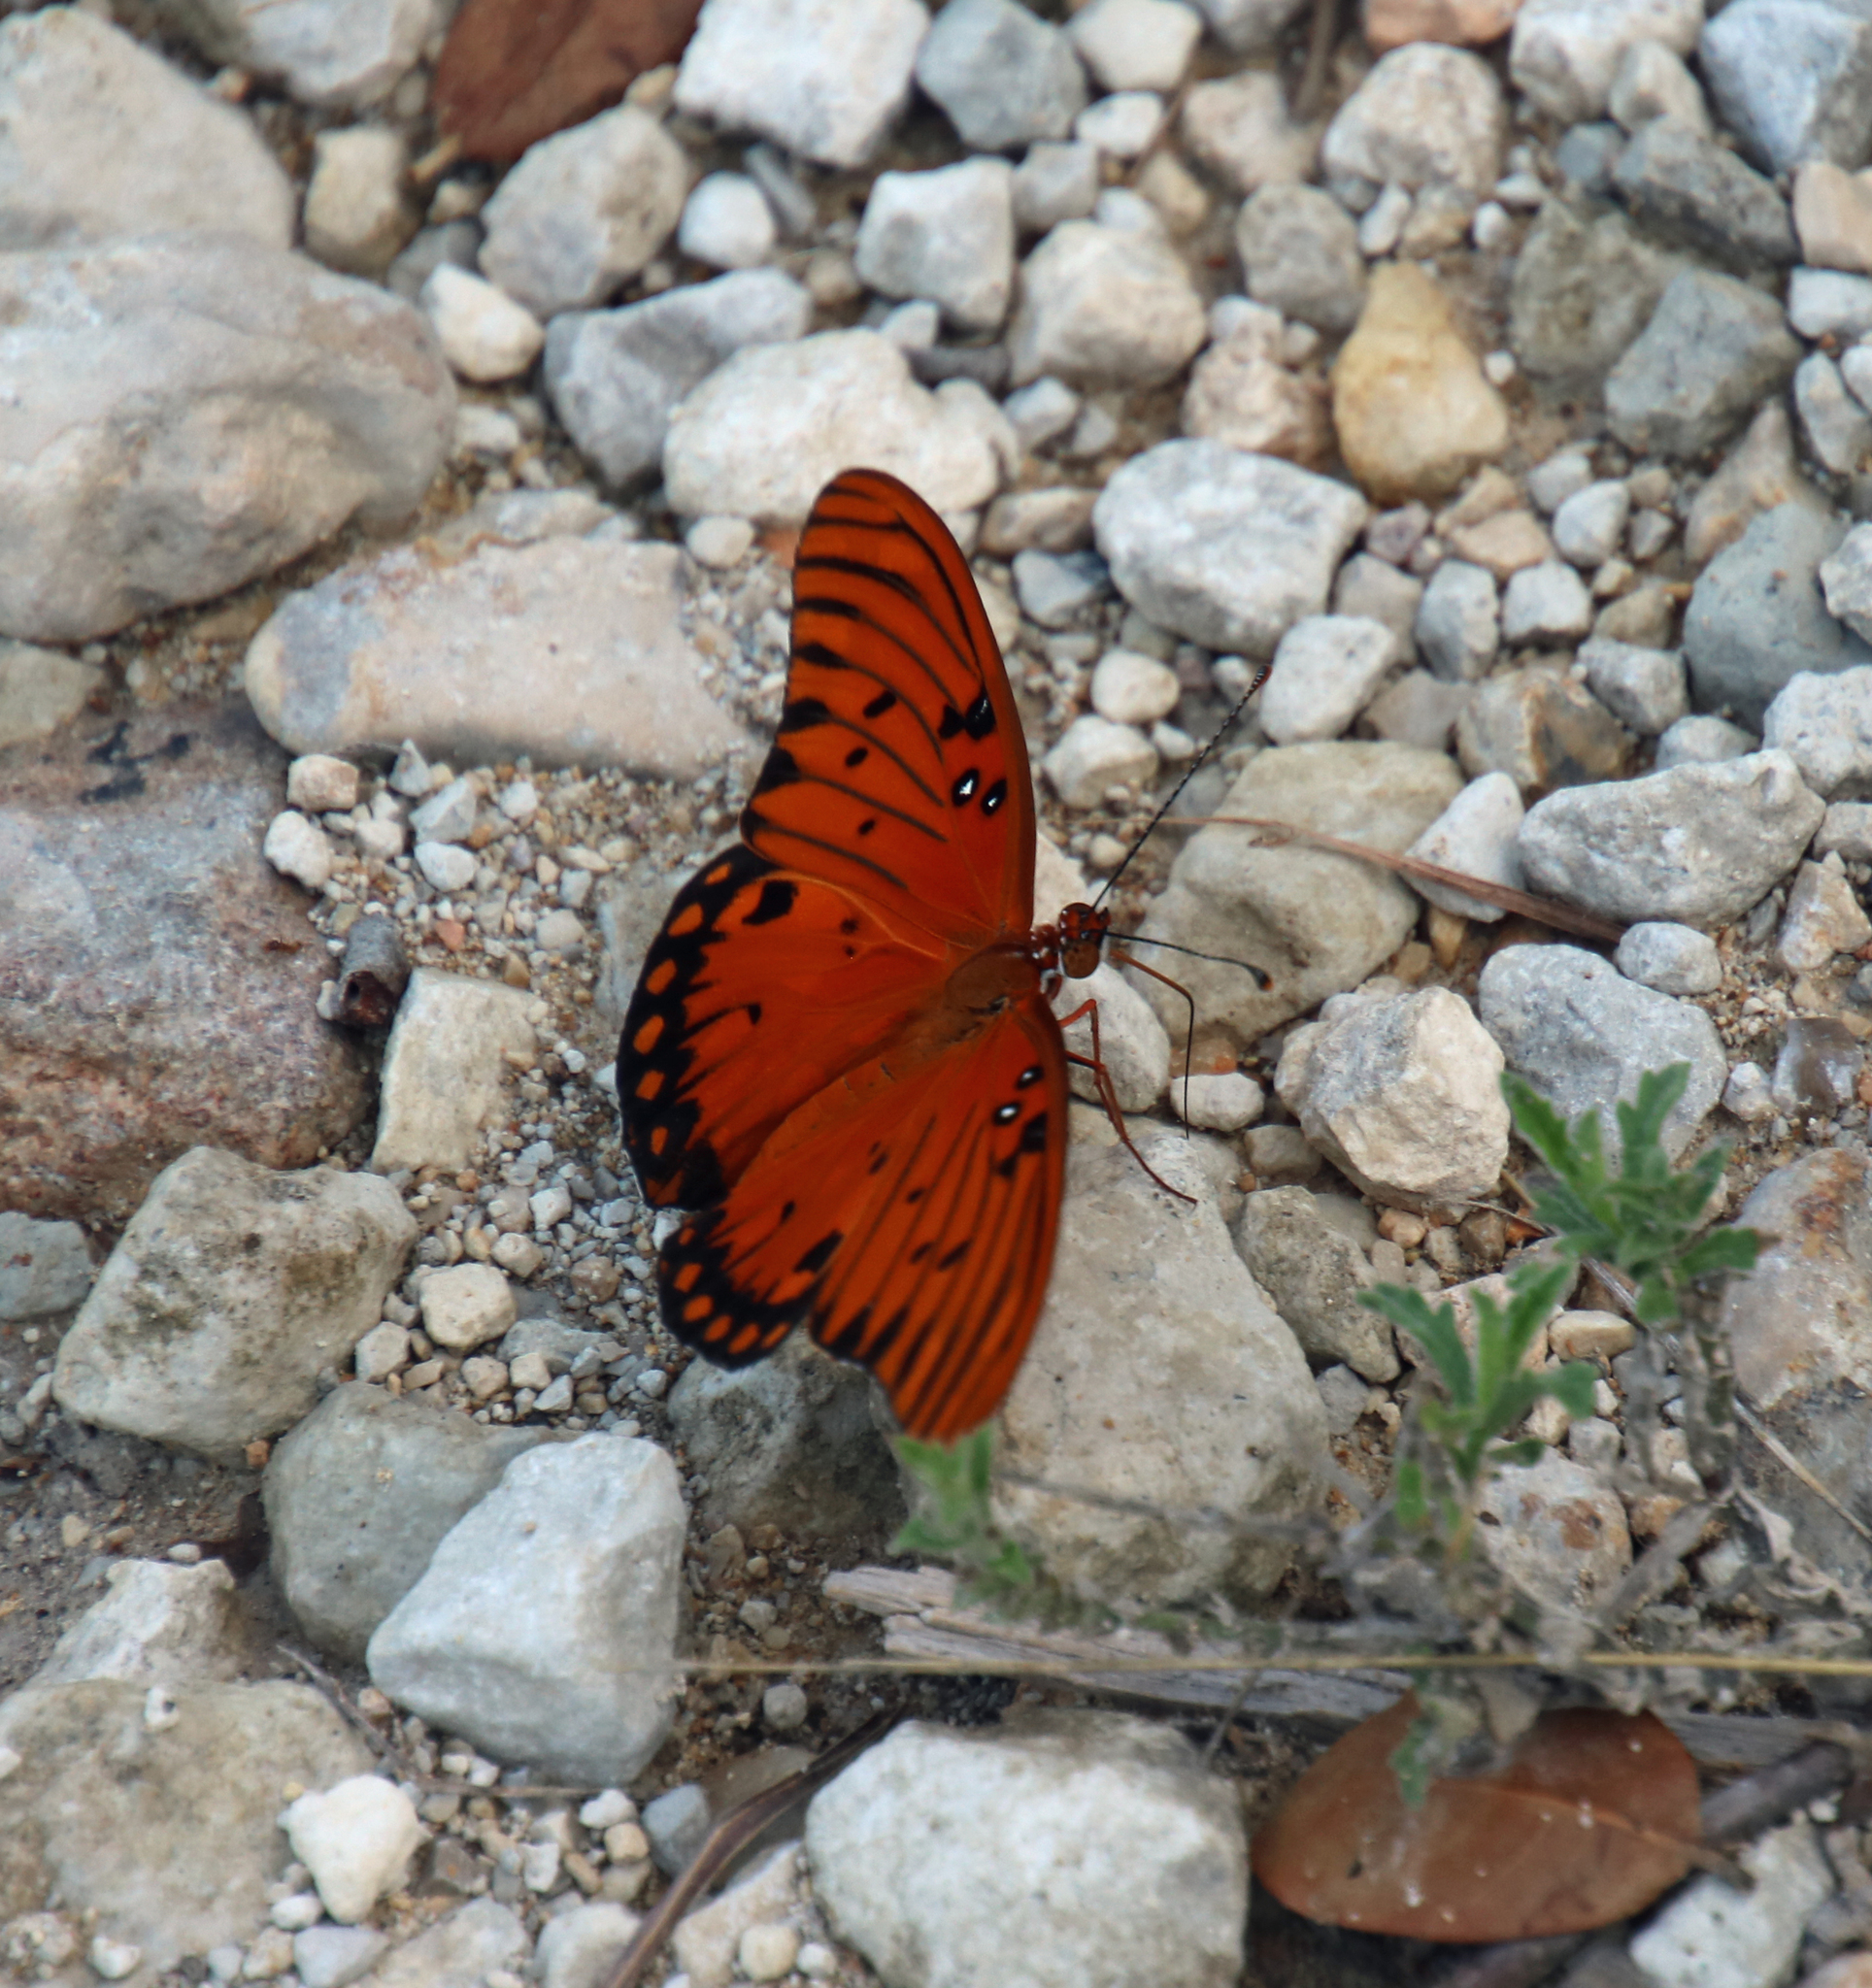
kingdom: Animalia
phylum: Arthropoda
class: Insecta
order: Lepidoptera
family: Nymphalidae
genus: Dione
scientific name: Dione vanillae
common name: Gulf fritillary
